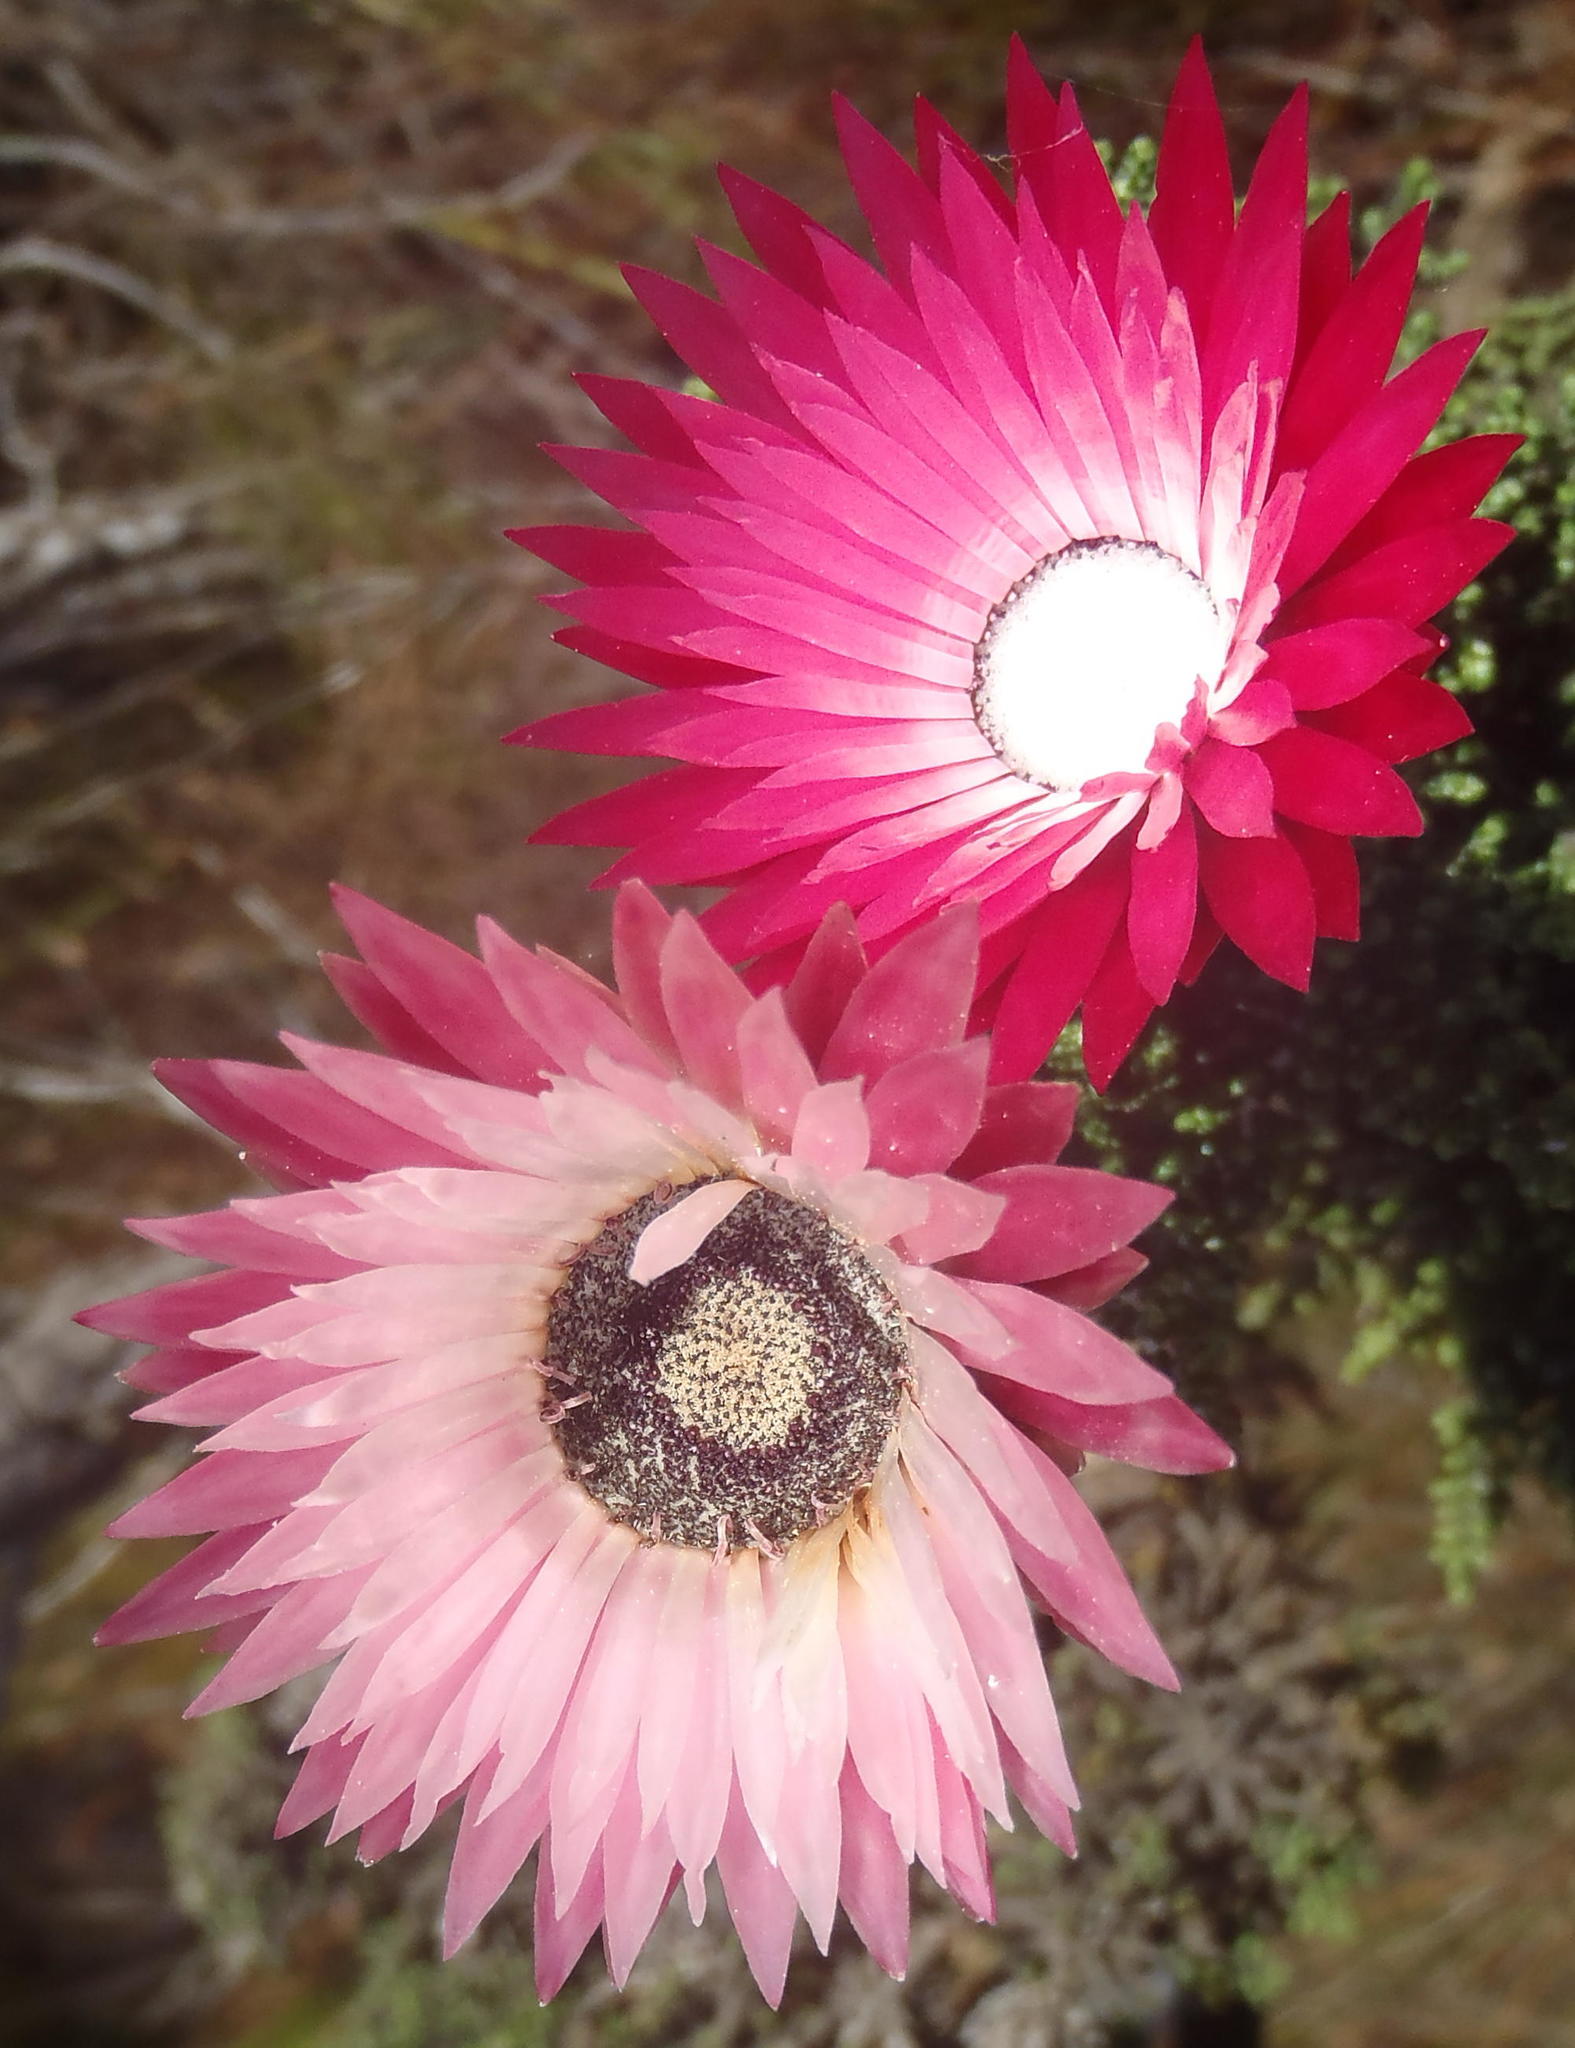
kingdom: Plantae
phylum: Tracheophyta
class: Magnoliopsida
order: Asterales
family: Asteraceae
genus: Phaenocoma
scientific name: Phaenocoma prolifera
